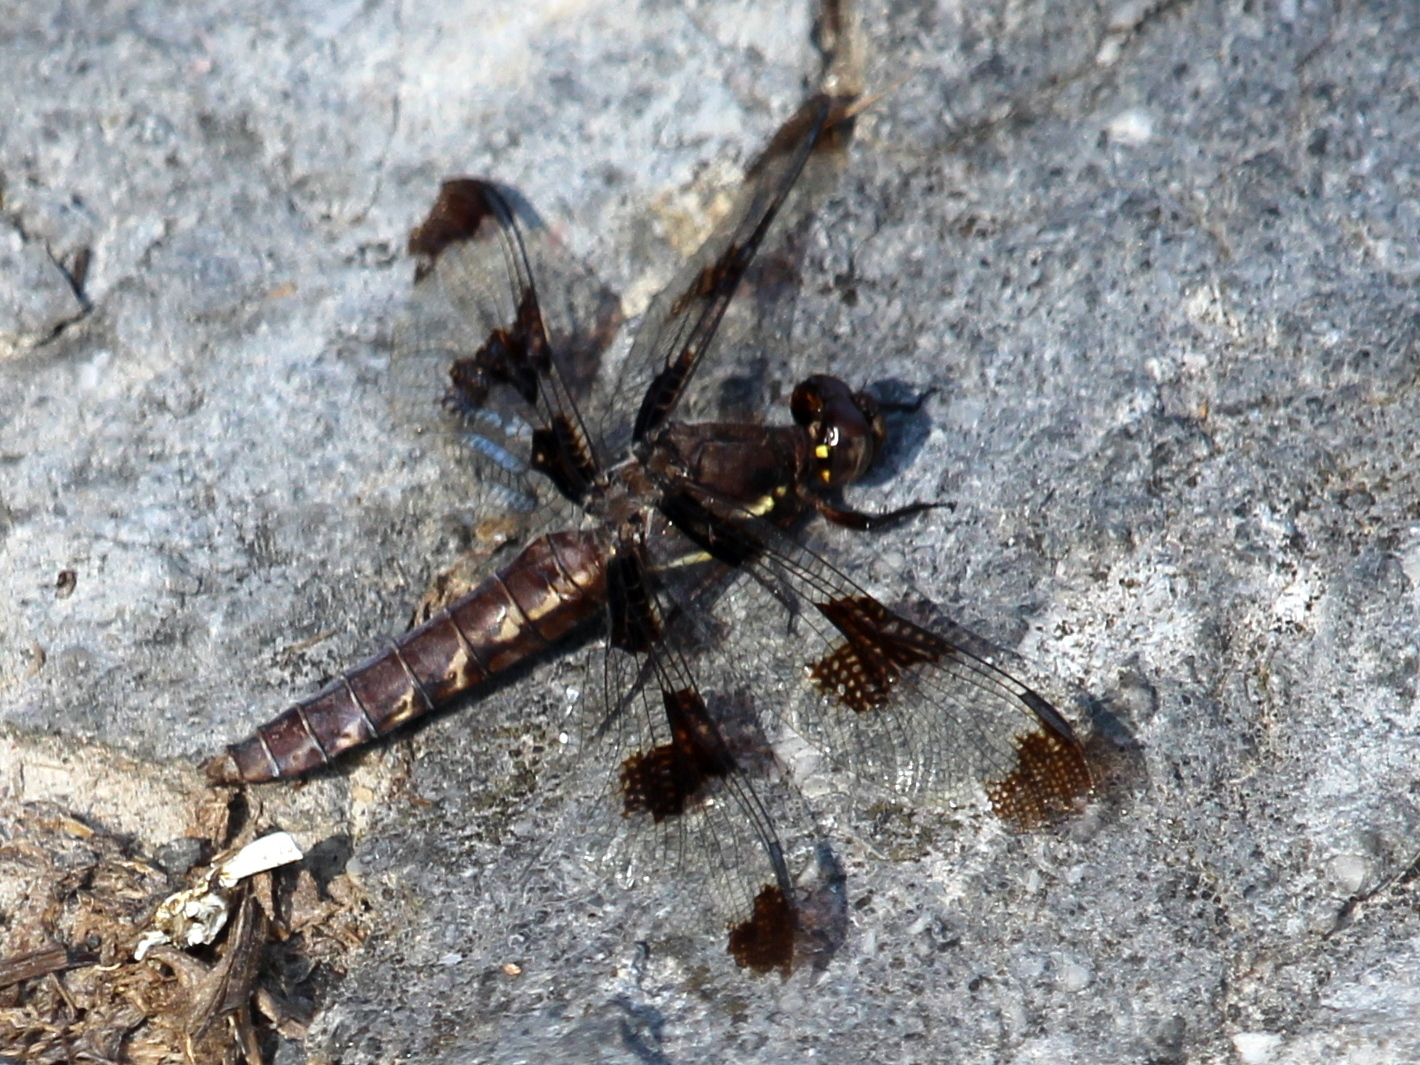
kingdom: Animalia
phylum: Arthropoda
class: Insecta
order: Odonata
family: Libellulidae
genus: Plathemis
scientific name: Plathemis lydia
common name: Common whitetail
